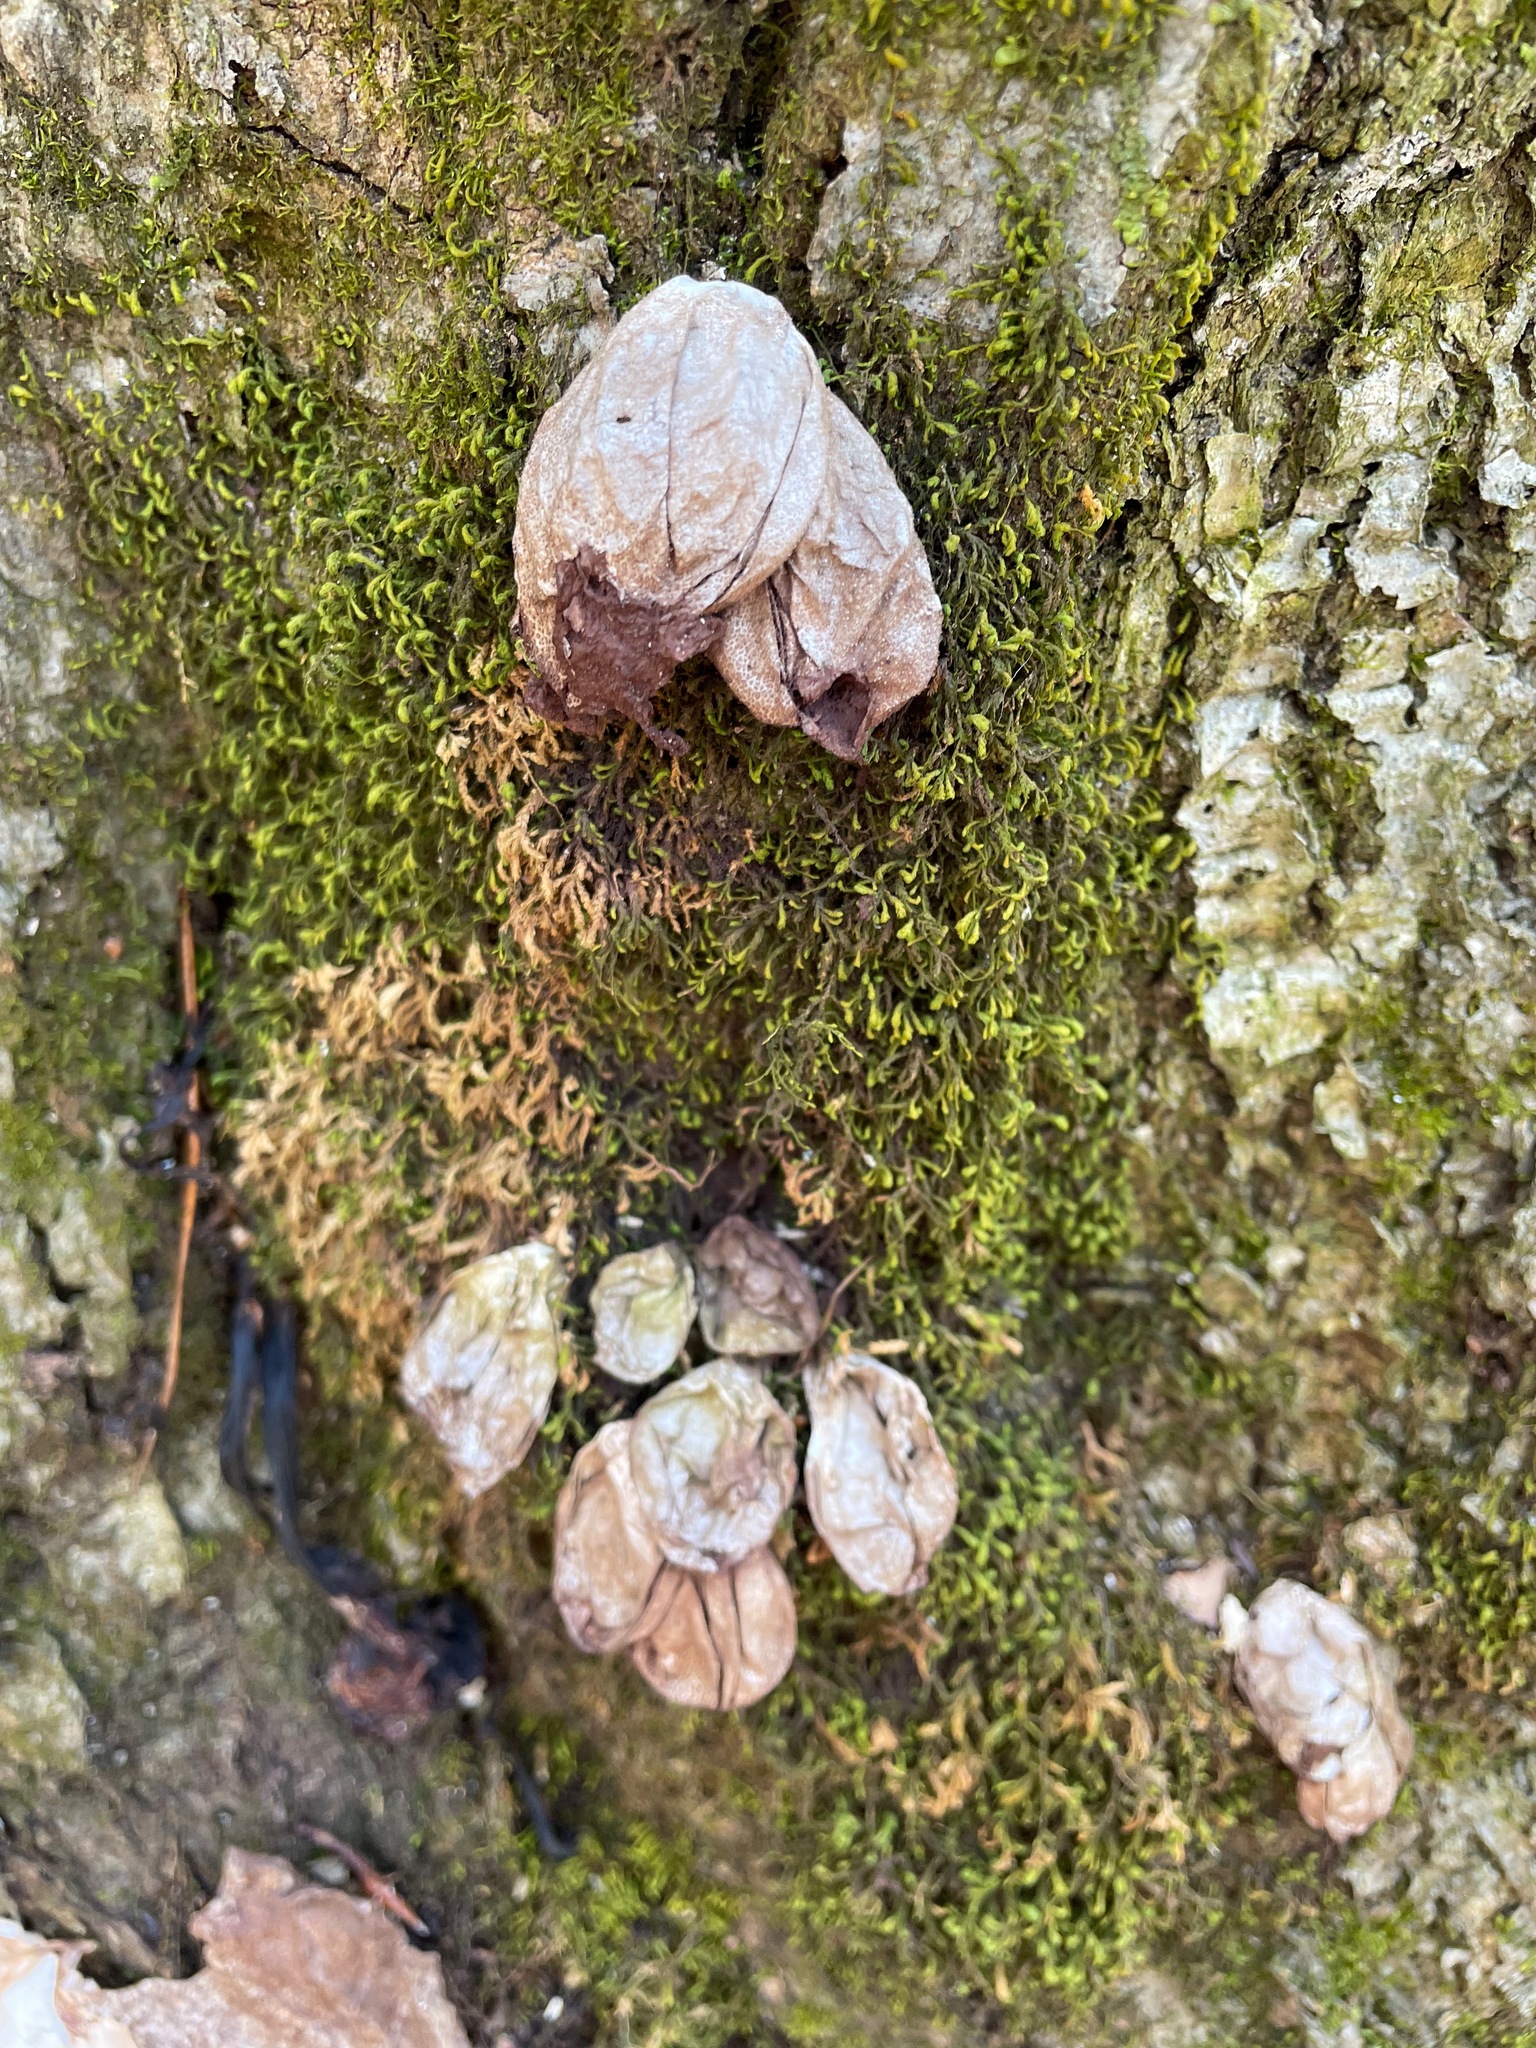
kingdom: Fungi
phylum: Basidiomycota
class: Agaricomycetes
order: Agaricales
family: Lycoperdaceae
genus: Apioperdon
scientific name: Apioperdon pyriforme
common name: Pear-shaped puffball
